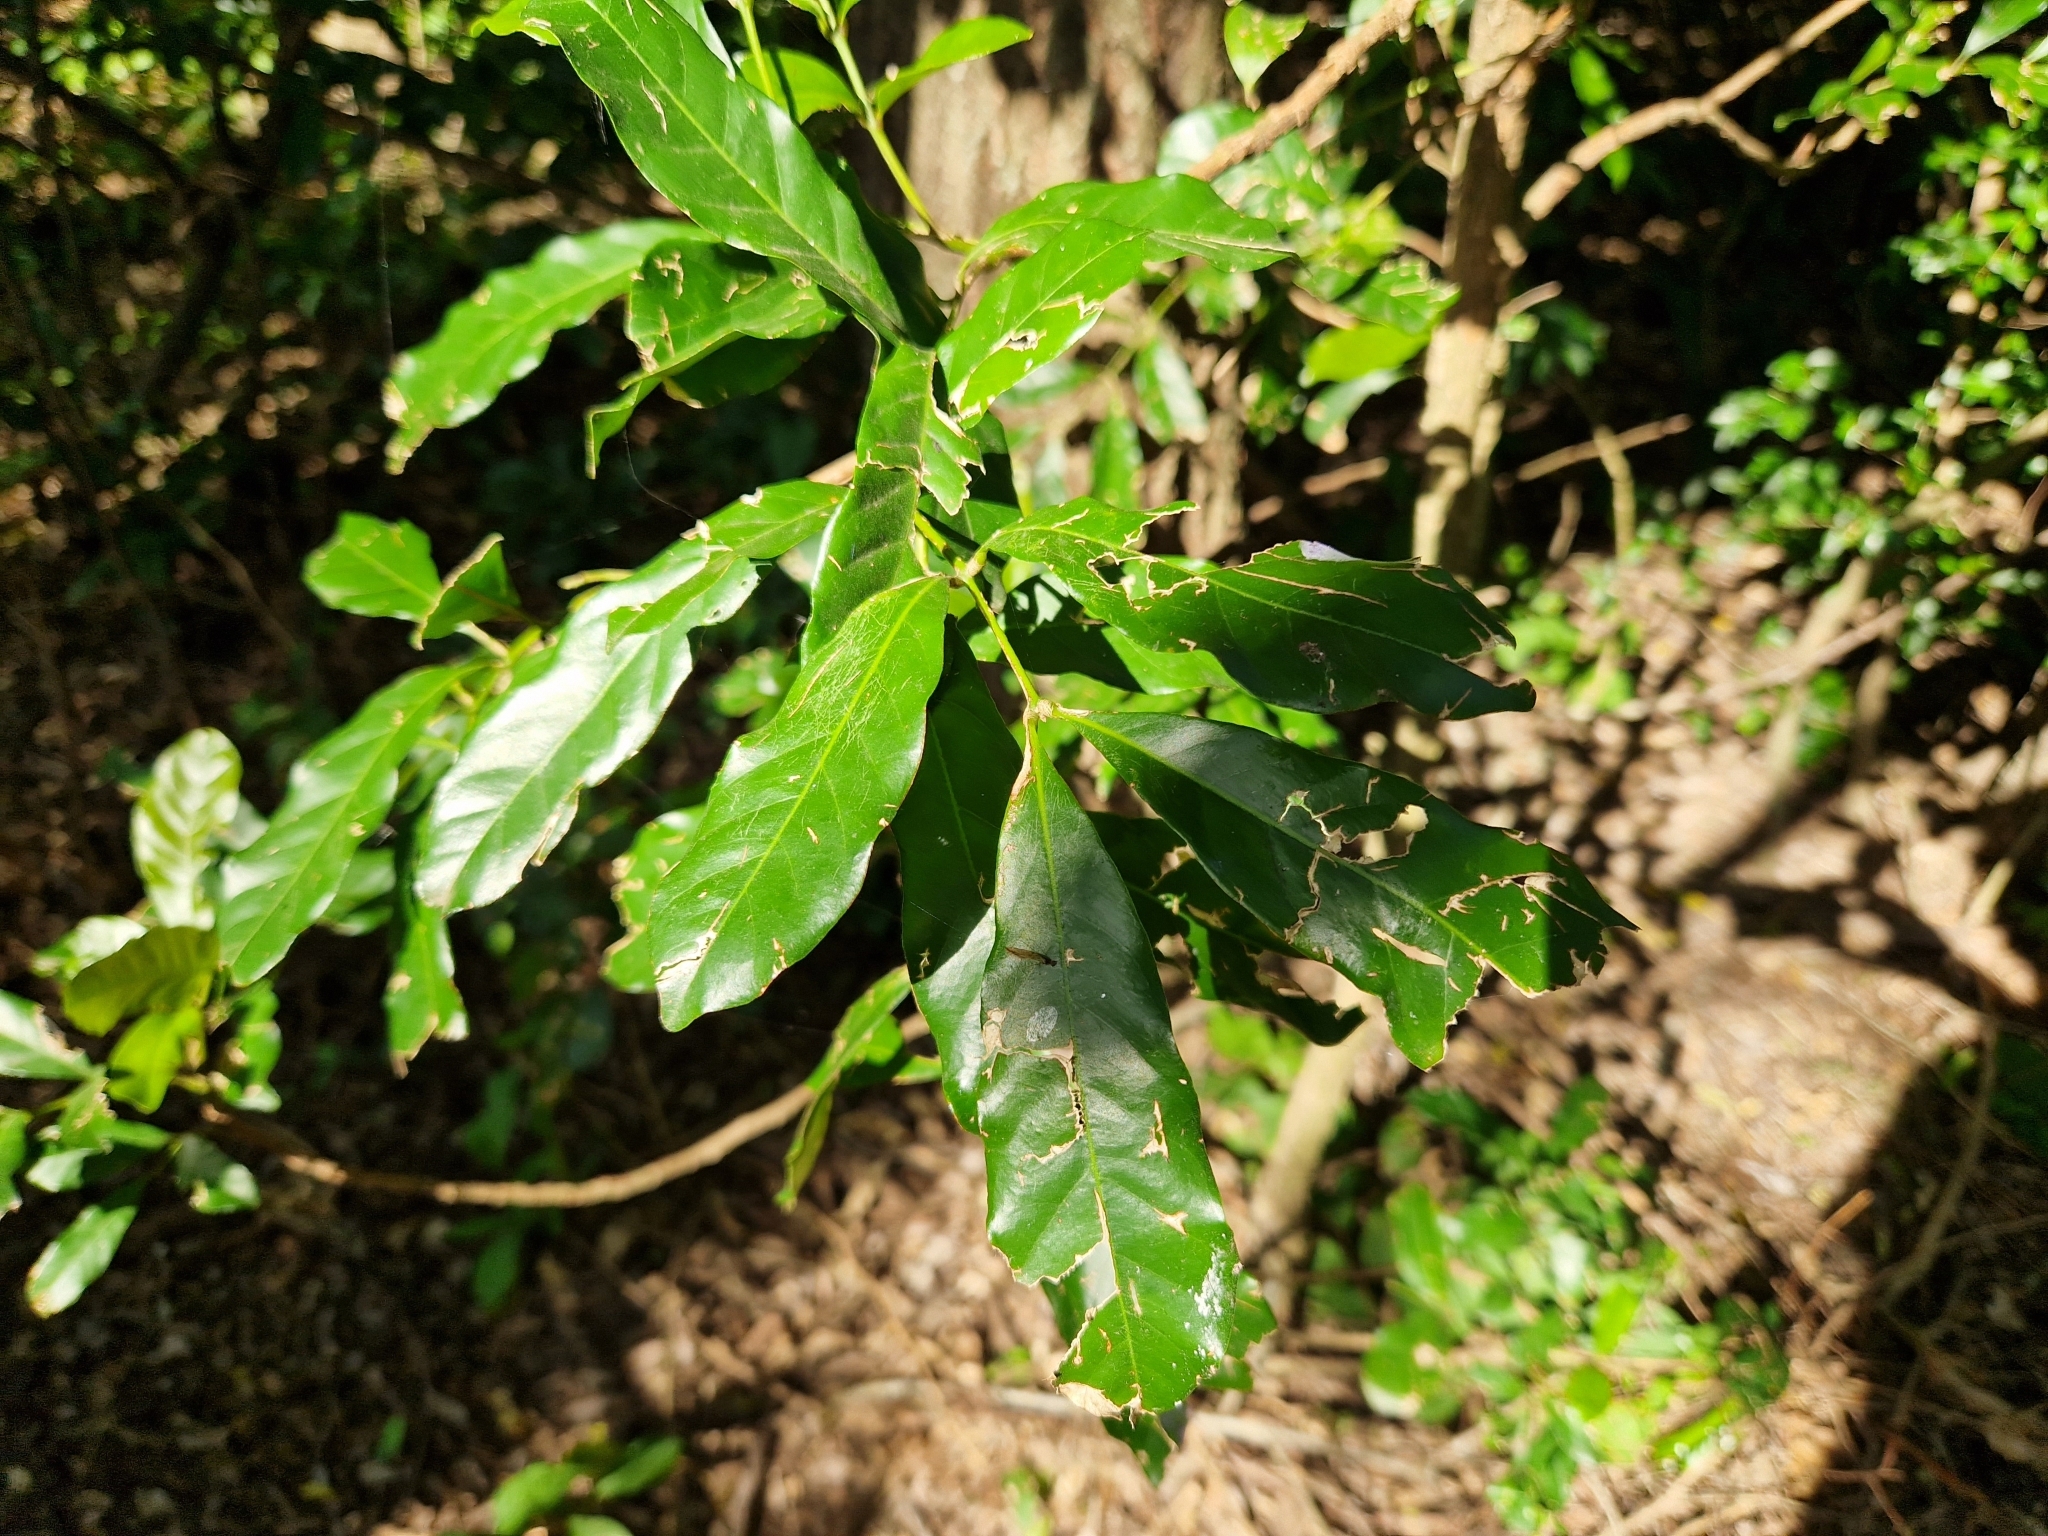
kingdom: Plantae
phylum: Tracheophyta
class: Magnoliopsida
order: Sapindales
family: Meliaceae
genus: Guarea
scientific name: Guarea macrophylla
